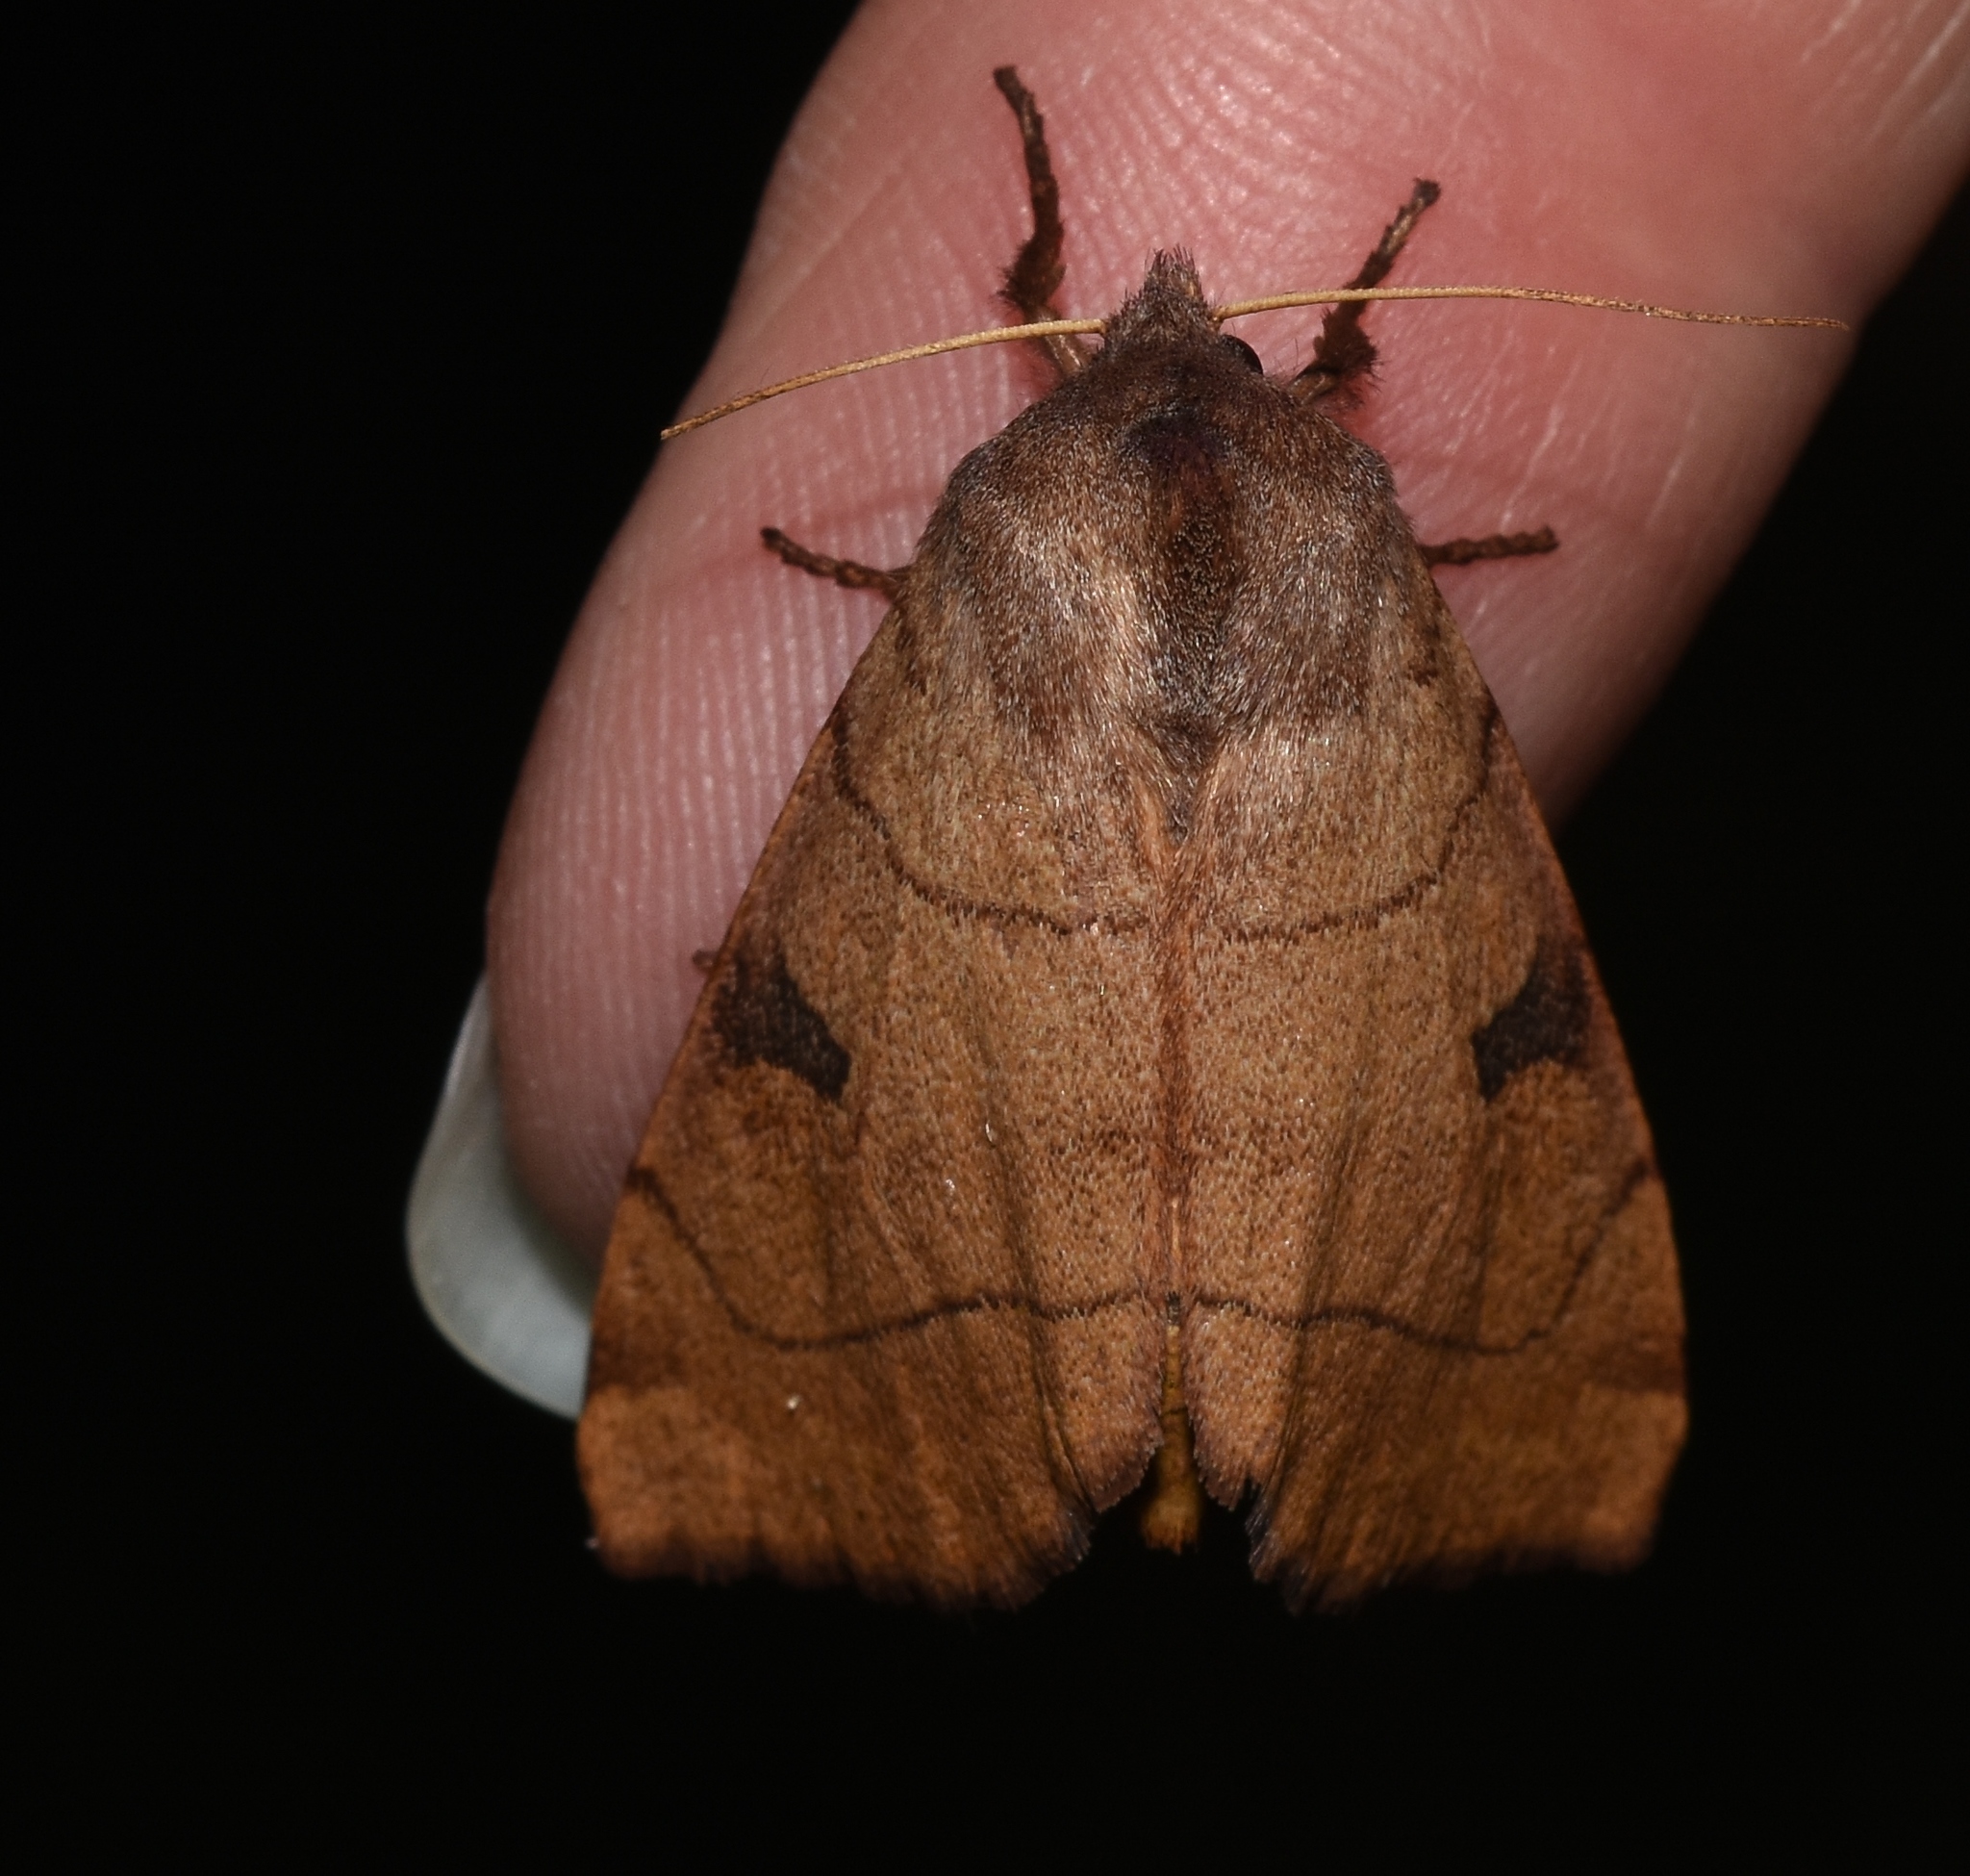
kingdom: Animalia
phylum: Arthropoda
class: Insecta
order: Lepidoptera
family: Noctuidae
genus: Choephora
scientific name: Choephora fungorum
